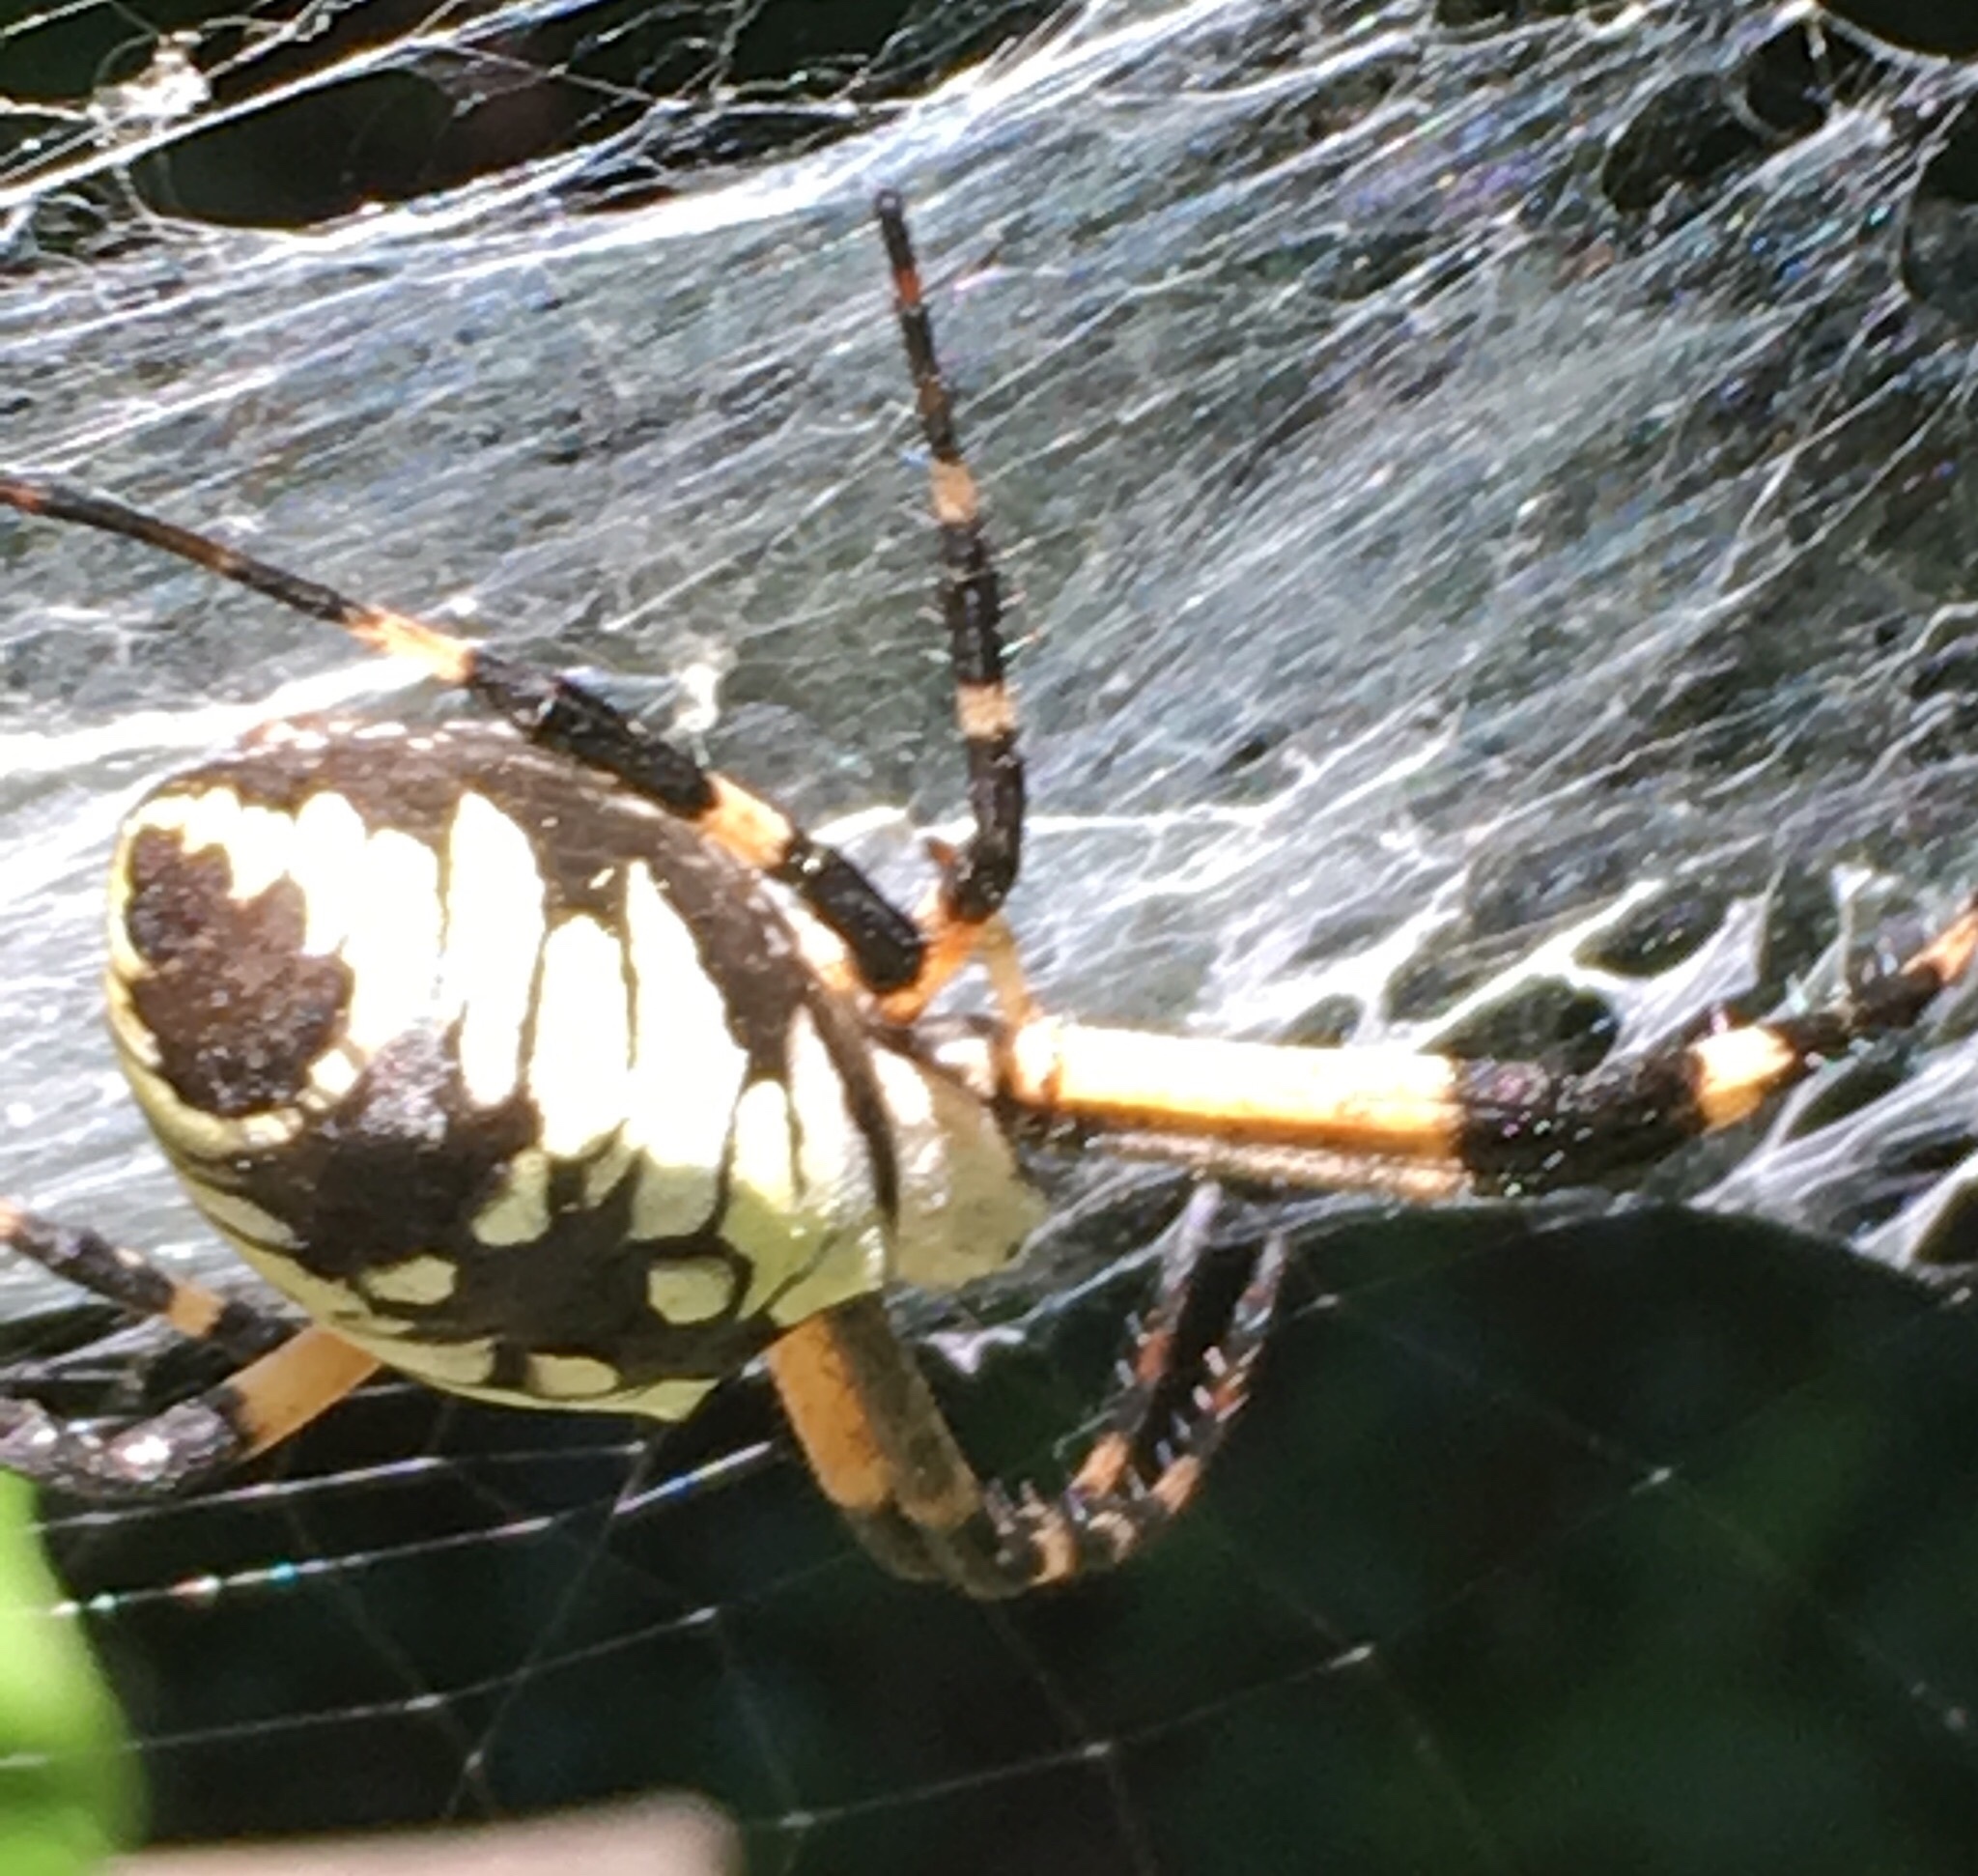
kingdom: Animalia
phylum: Arthropoda
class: Arachnida
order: Araneae
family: Araneidae
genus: Argiope
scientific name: Argiope aurantia
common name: Orb weavers
